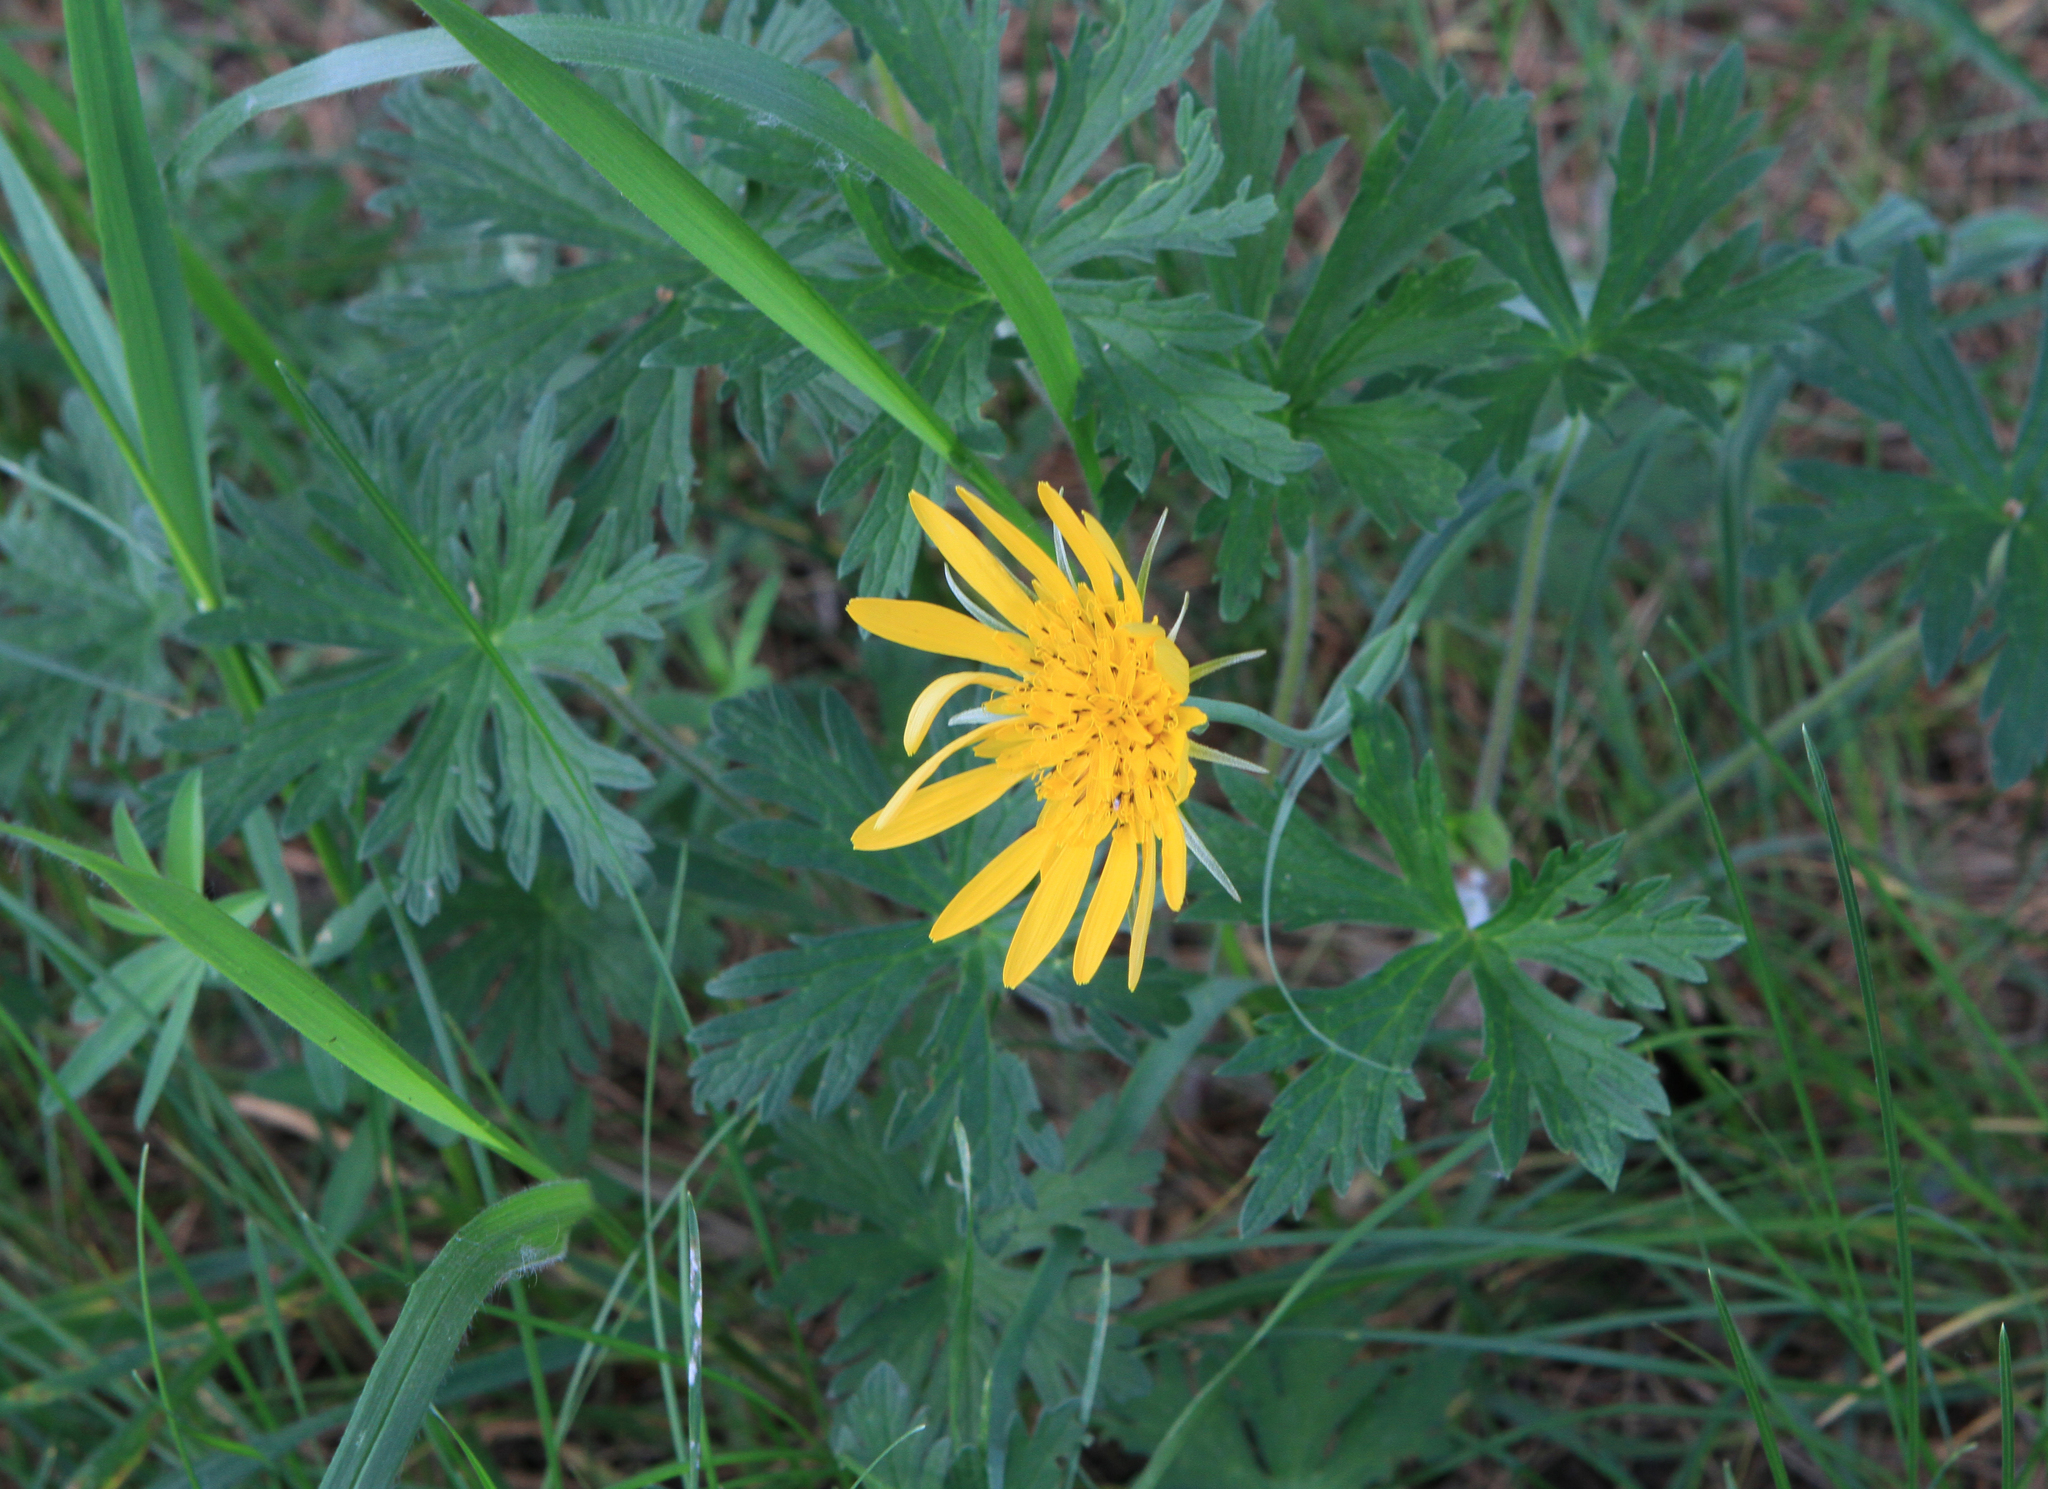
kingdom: Plantae
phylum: Tracheophyta
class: Magnoliopsida
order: Asterales
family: Asteraceae
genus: Tragopogon
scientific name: Tragopogon orientalis
